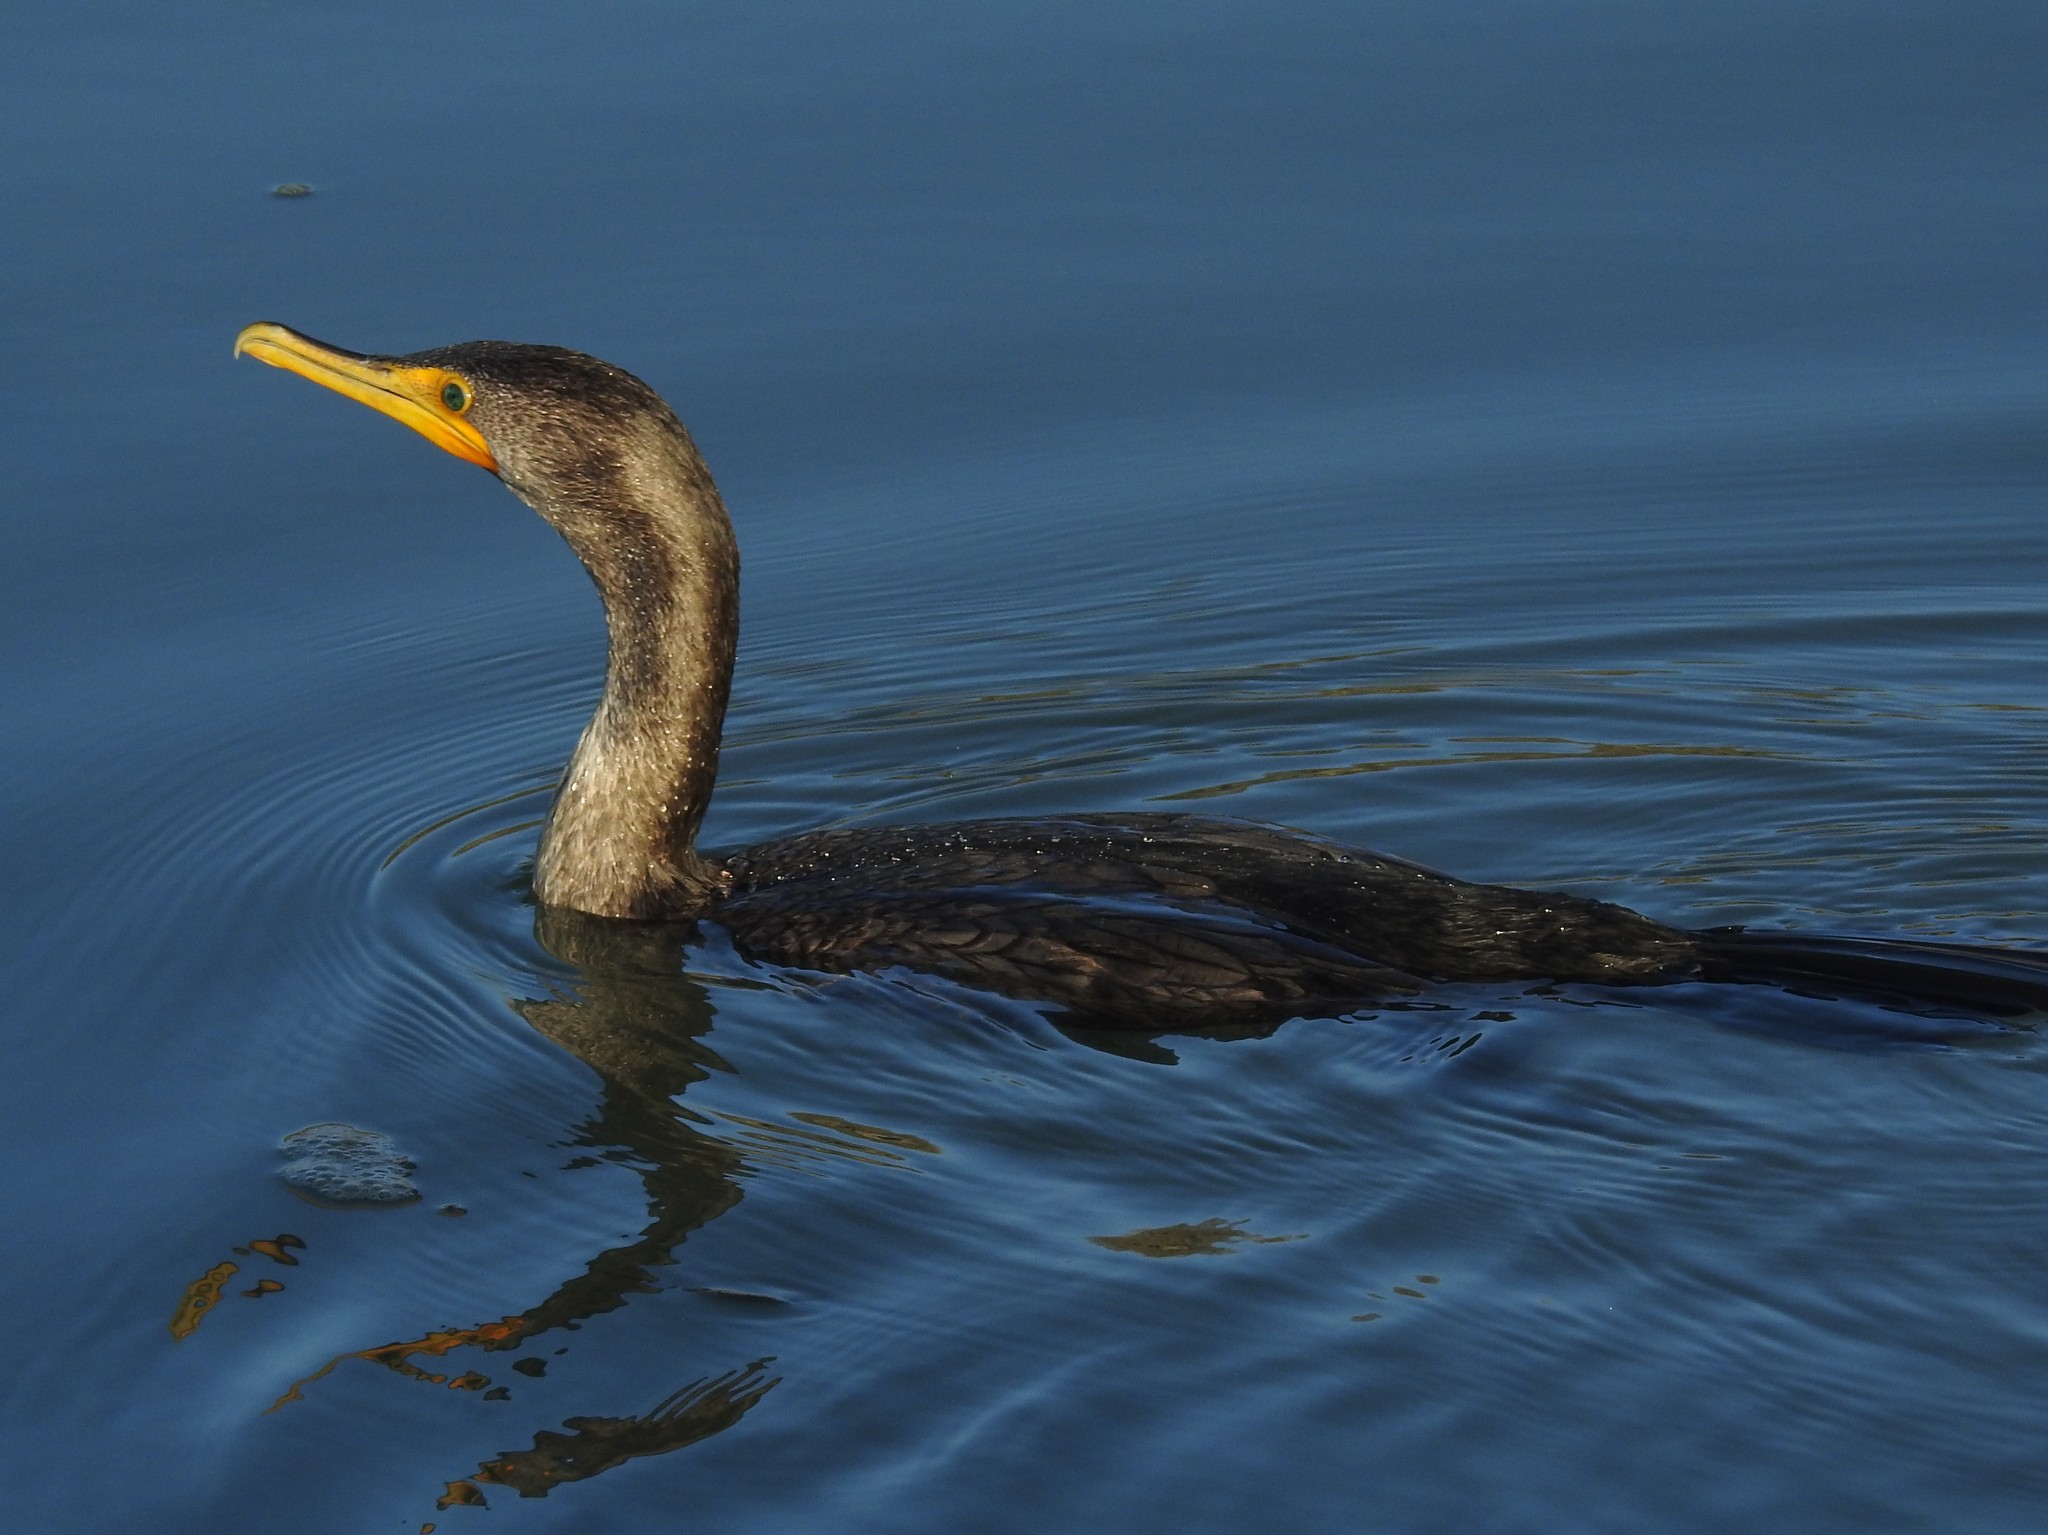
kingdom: Animalia
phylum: Chordata
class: Aves
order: Suliformes
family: Phalacrocoracidae
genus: Phalacrocorax
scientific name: Phalacrocorax auritus
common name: Double-crested cormorant
